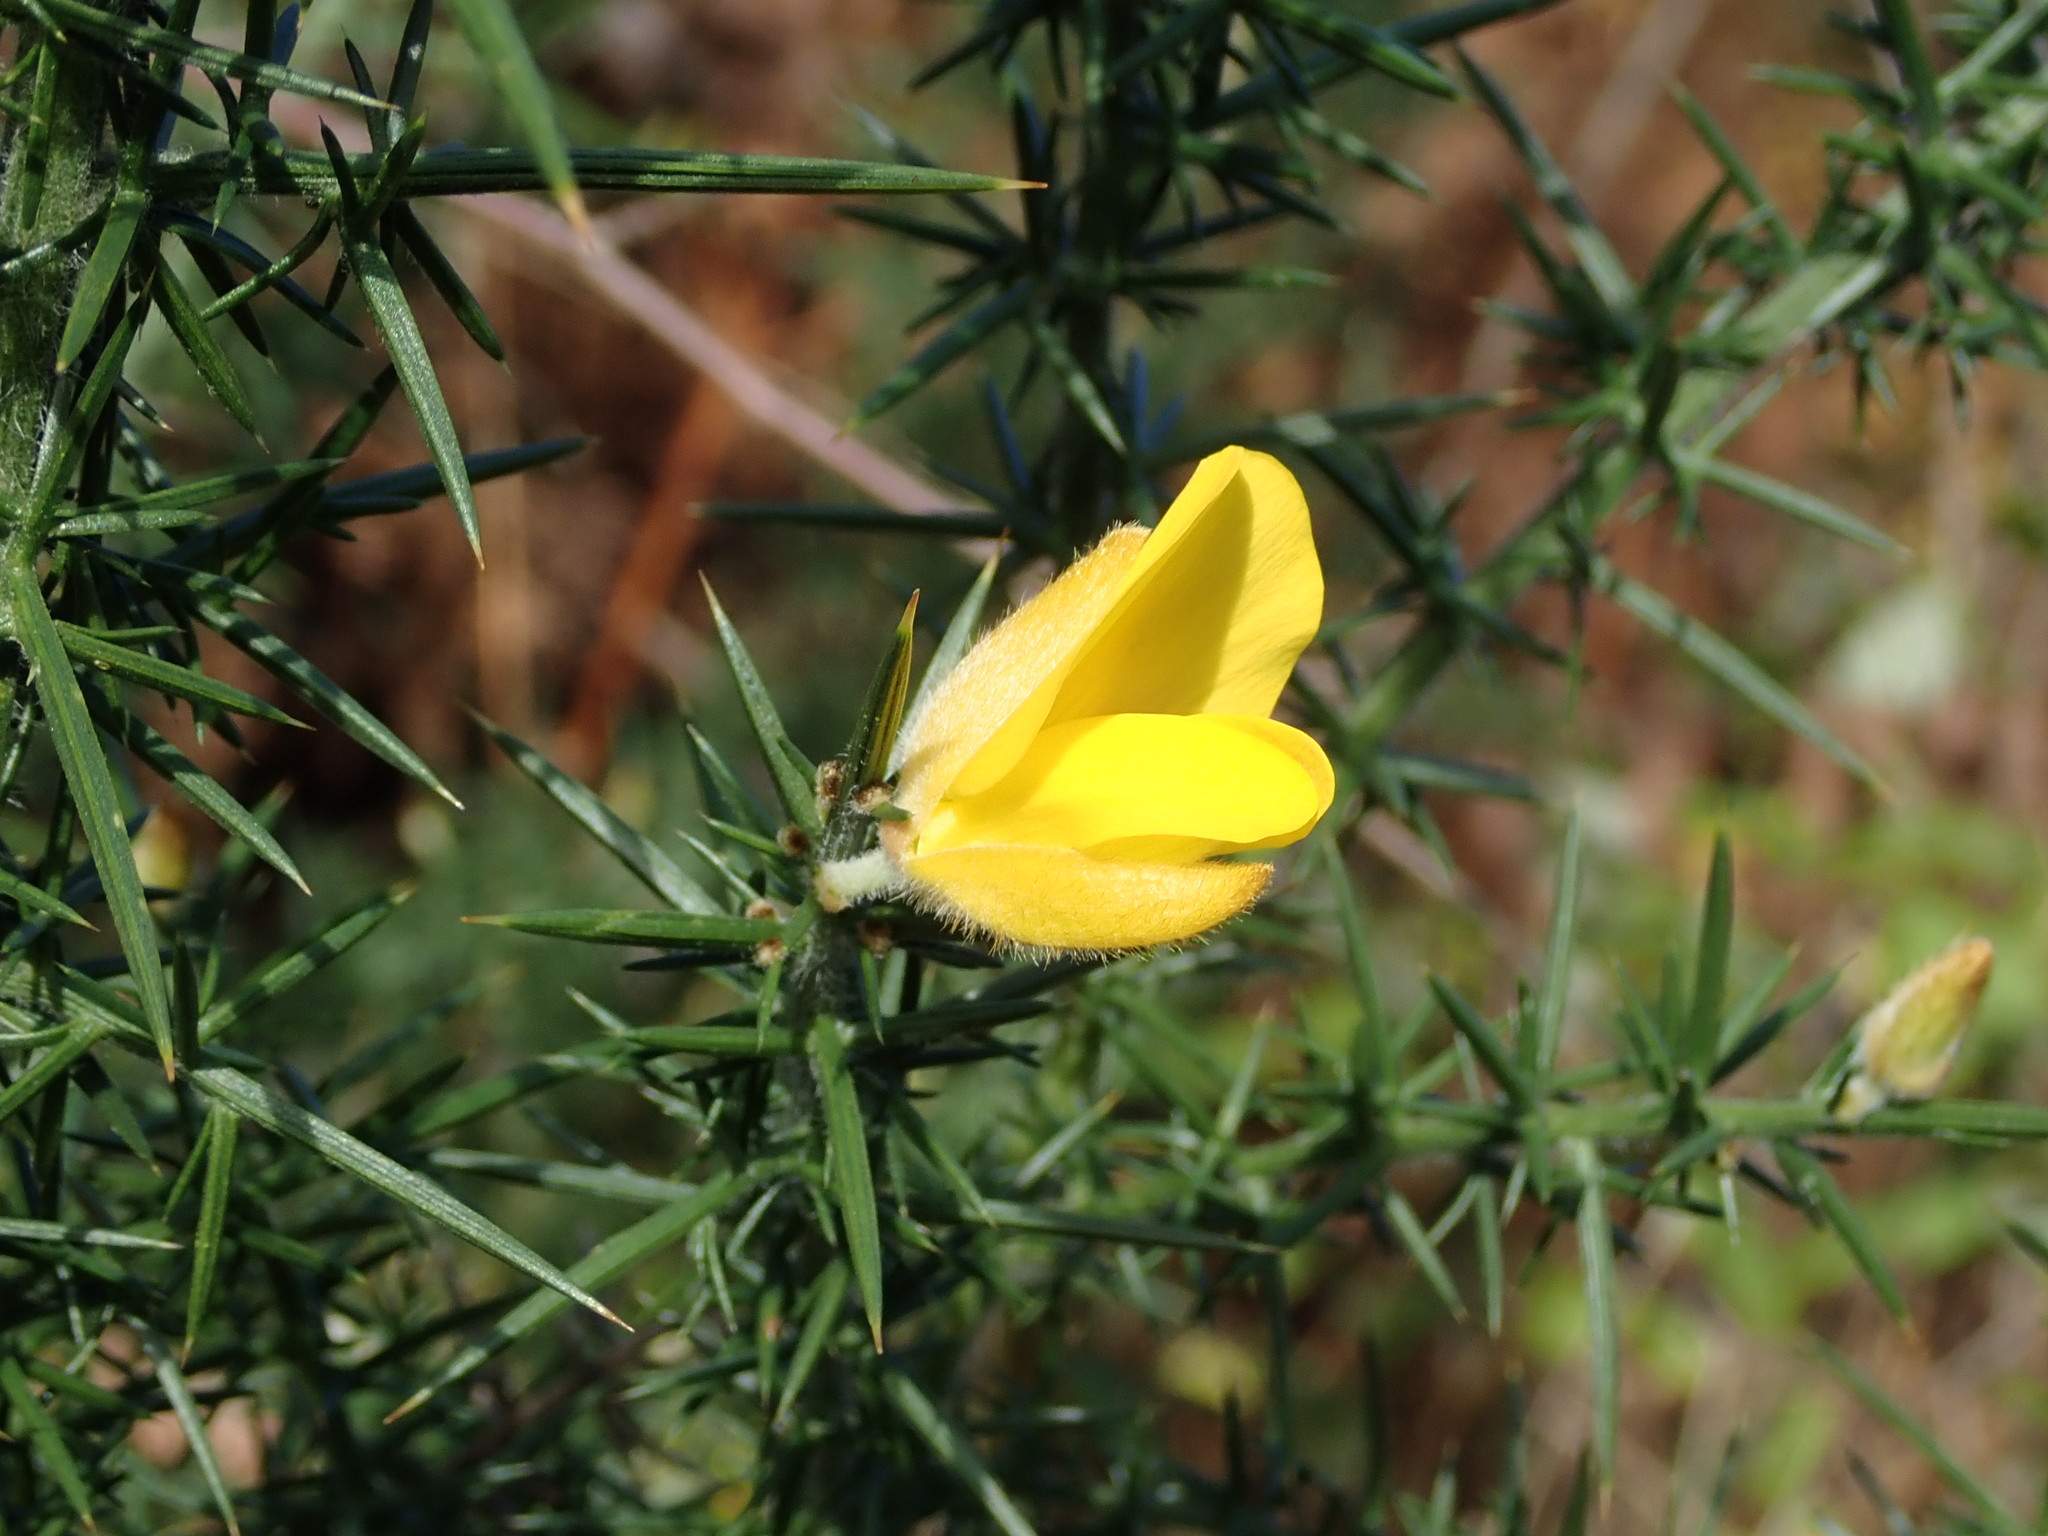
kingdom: Plantae
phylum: Tracheophyta
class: Magnoliopsida
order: Fabales
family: Fabaceae
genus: Ulex
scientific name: Ulex europaeus
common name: Common gorse
